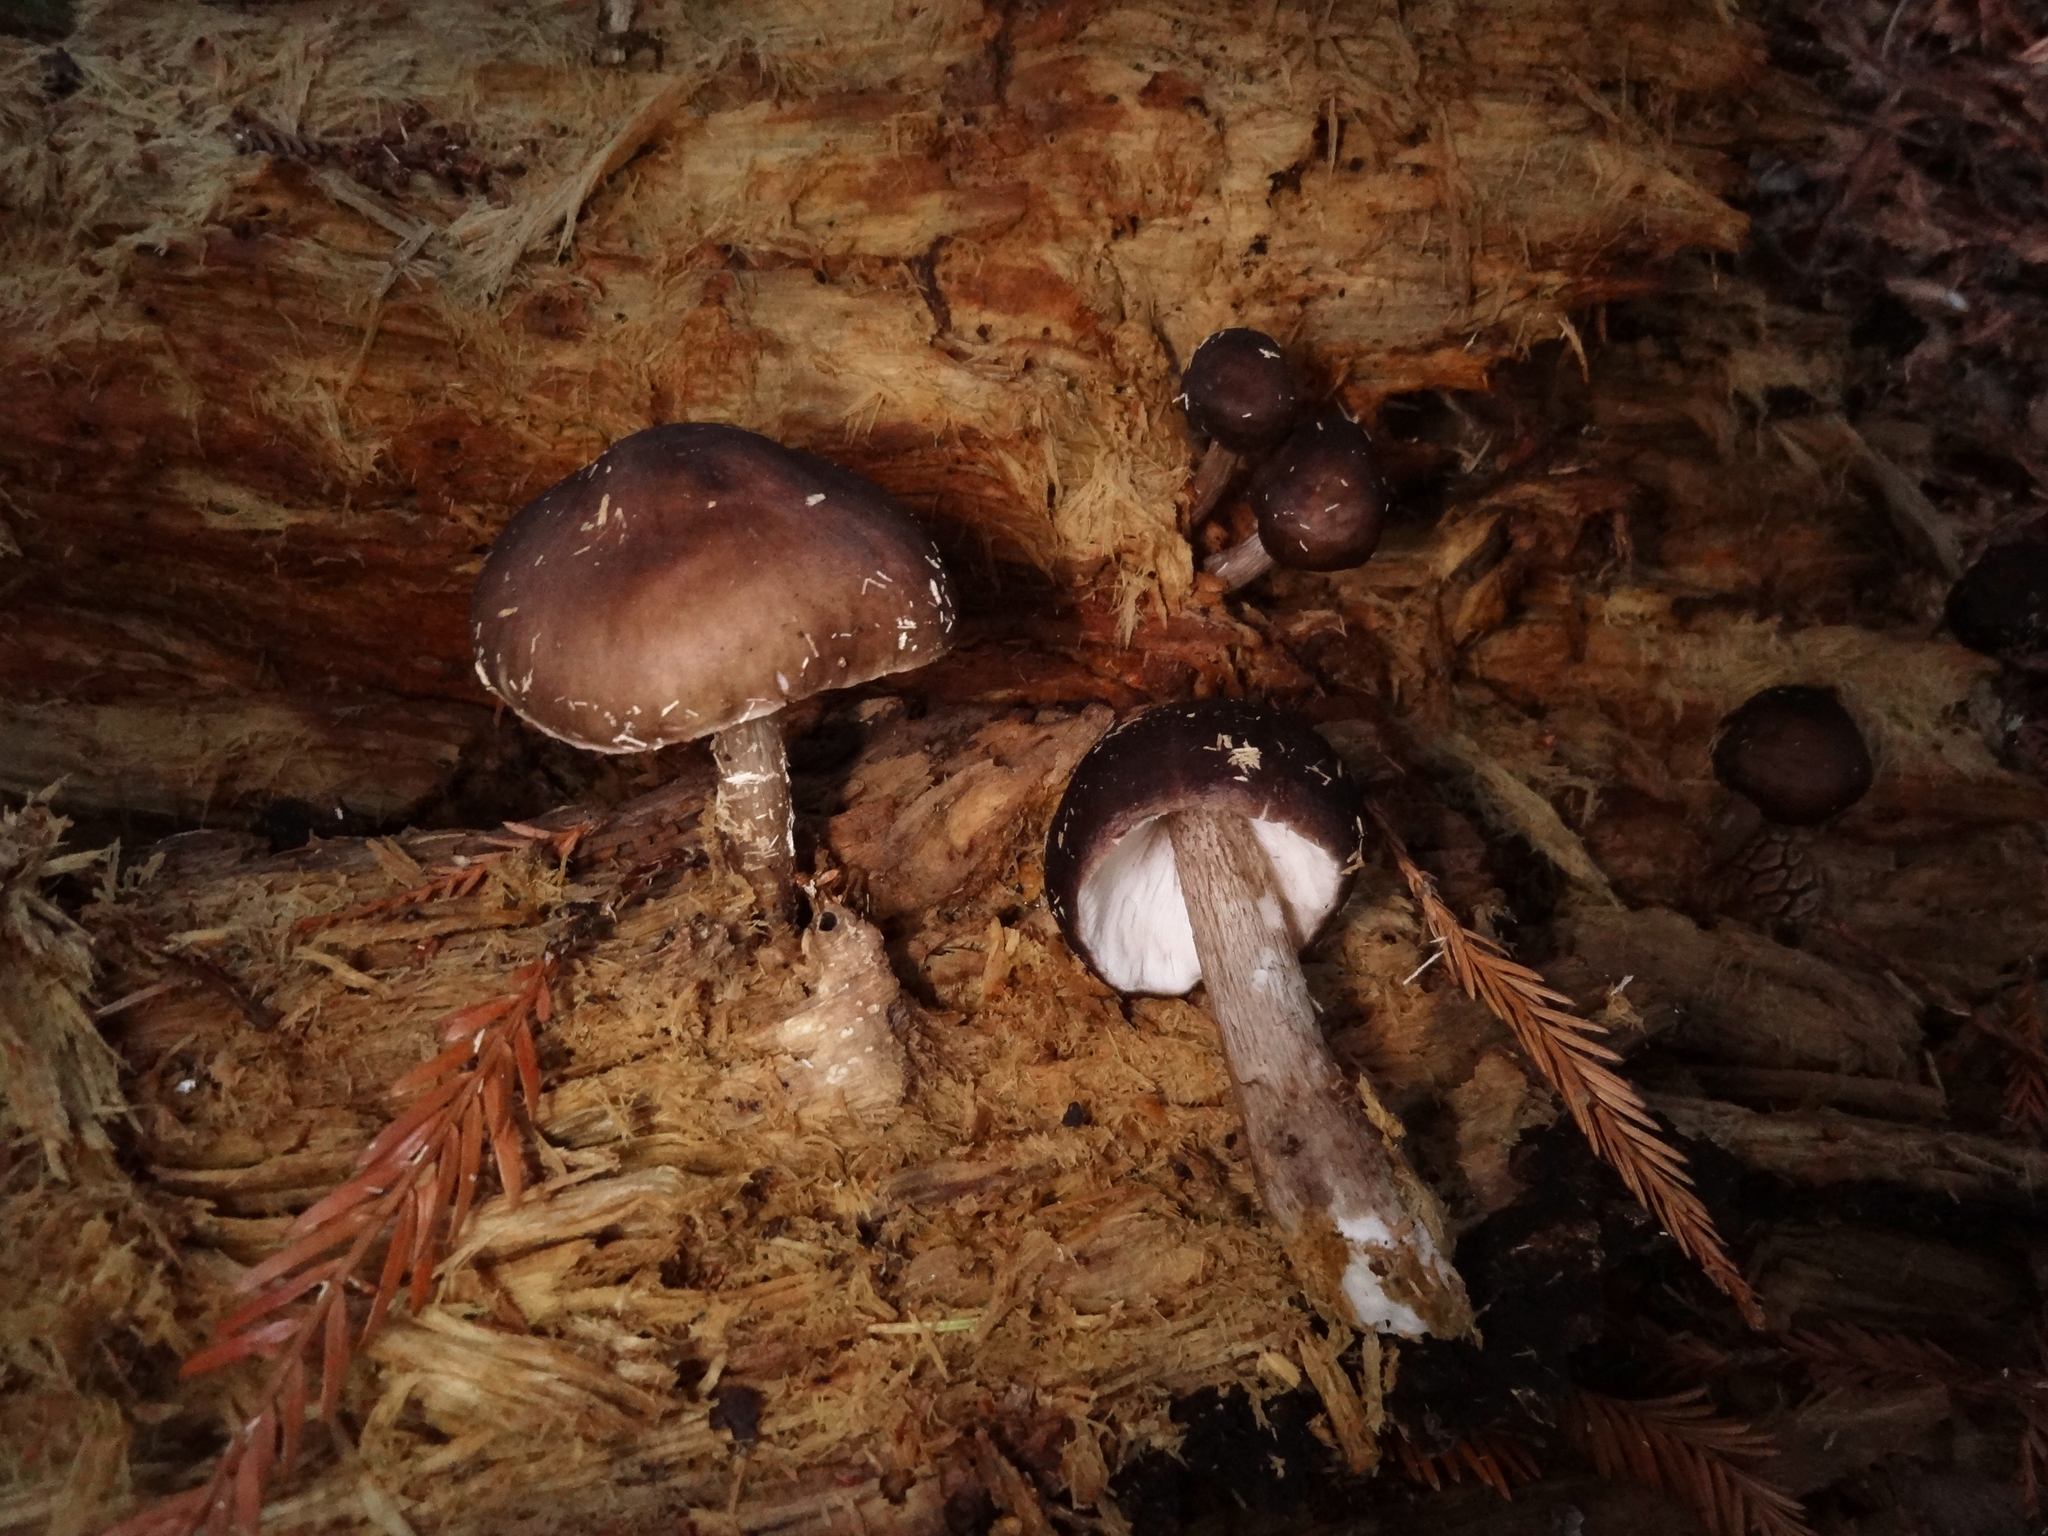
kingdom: Fungi
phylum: Basidiomycota
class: Agaricomycetes
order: Agaricales
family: Pluteaceae
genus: Pluteus
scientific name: Pluteus exilis
